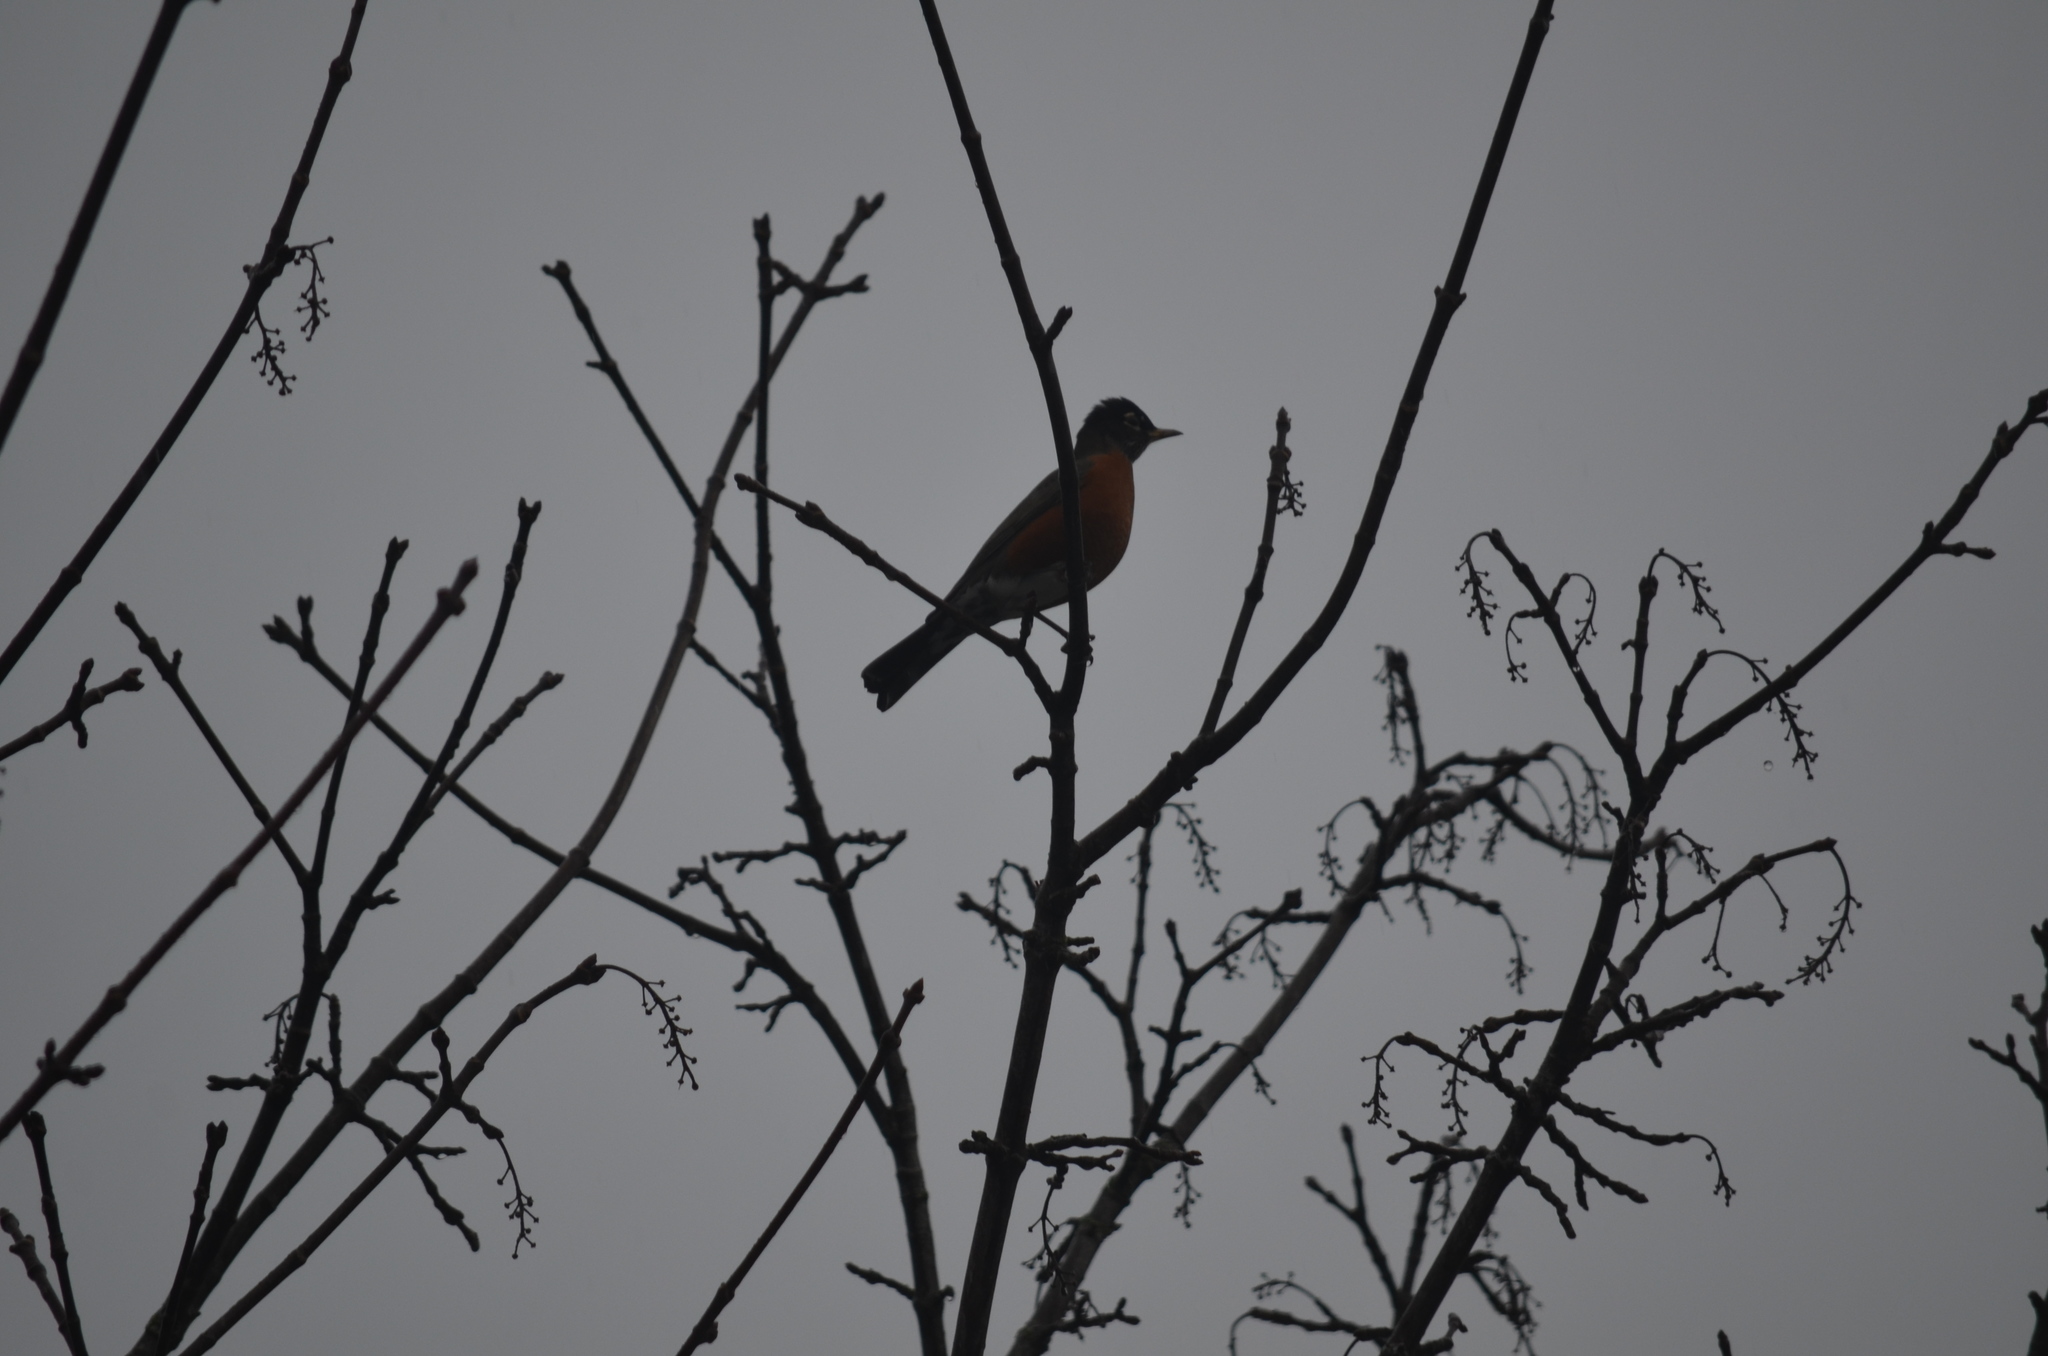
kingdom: Animalia
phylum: Chordata
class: Aves
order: Passeriformes
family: Turdidae
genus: Turdus
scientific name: Turdus migratorius
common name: American robin
